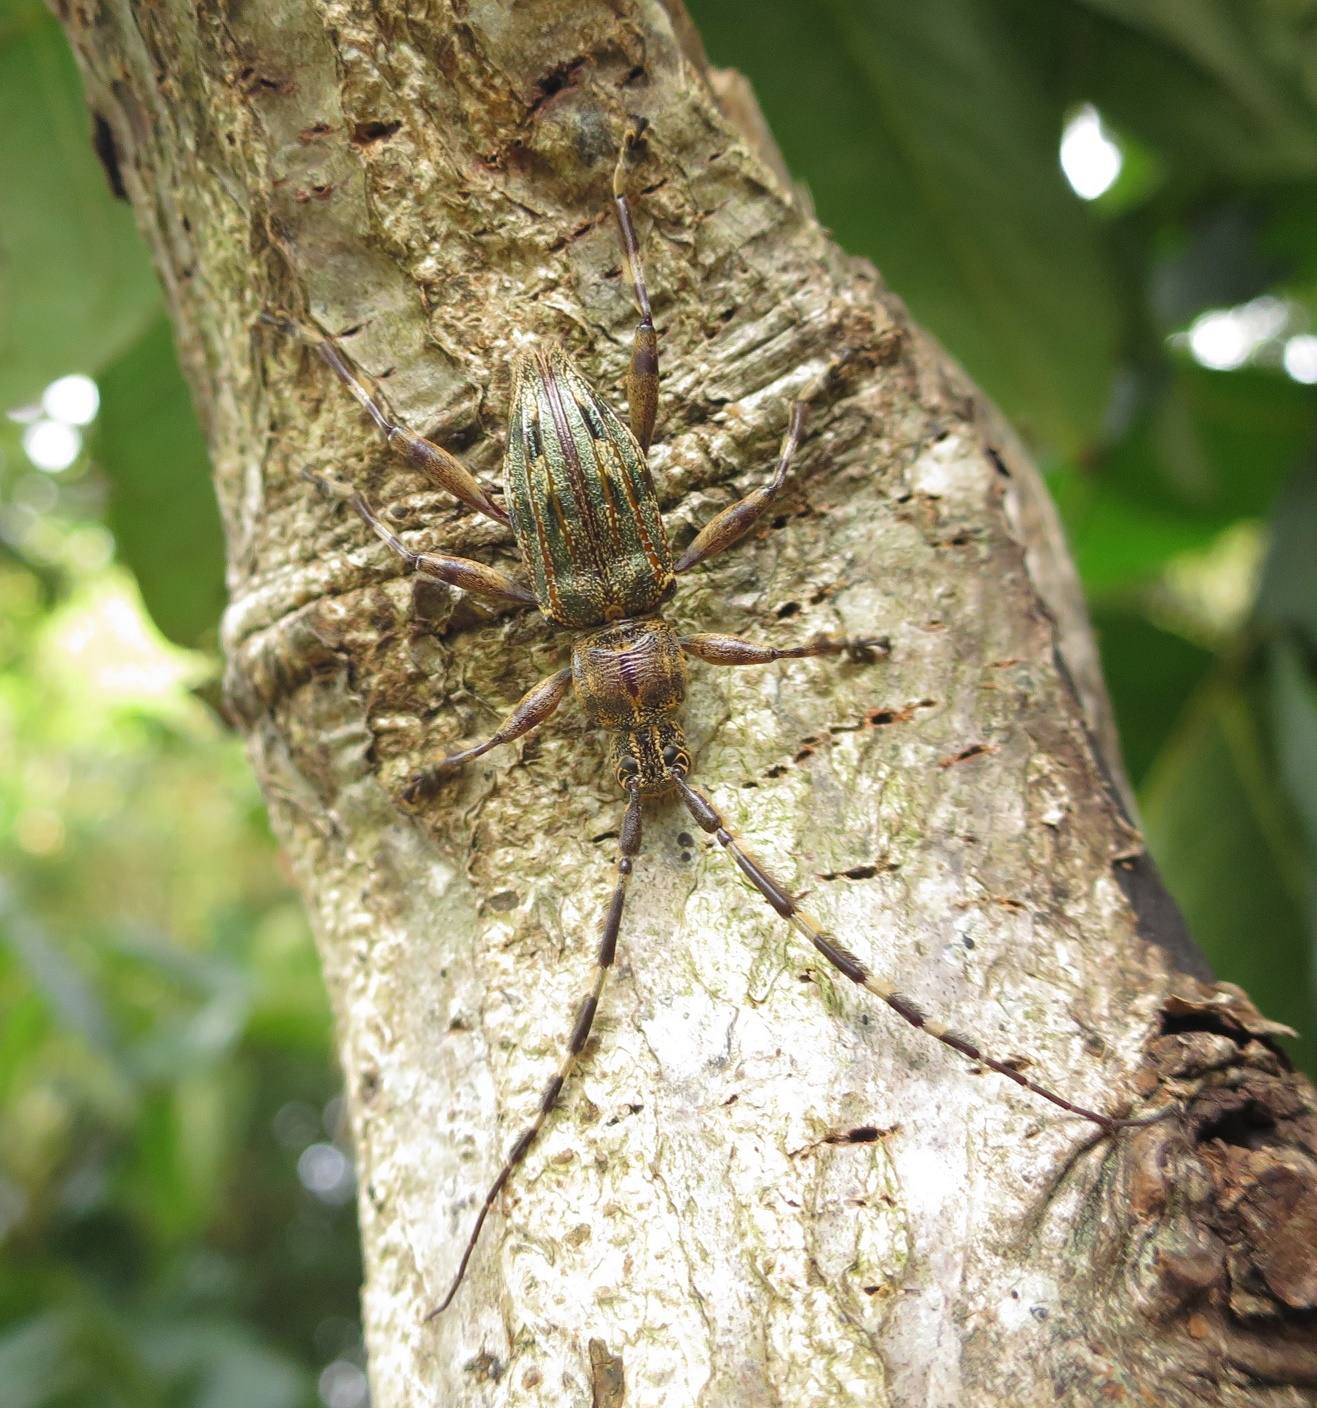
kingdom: Animalia
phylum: Arthropoda
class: Insecta
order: Coleoptera
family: Cerambycidae
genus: Hexatricha
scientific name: Hexatricha pulverulenta
